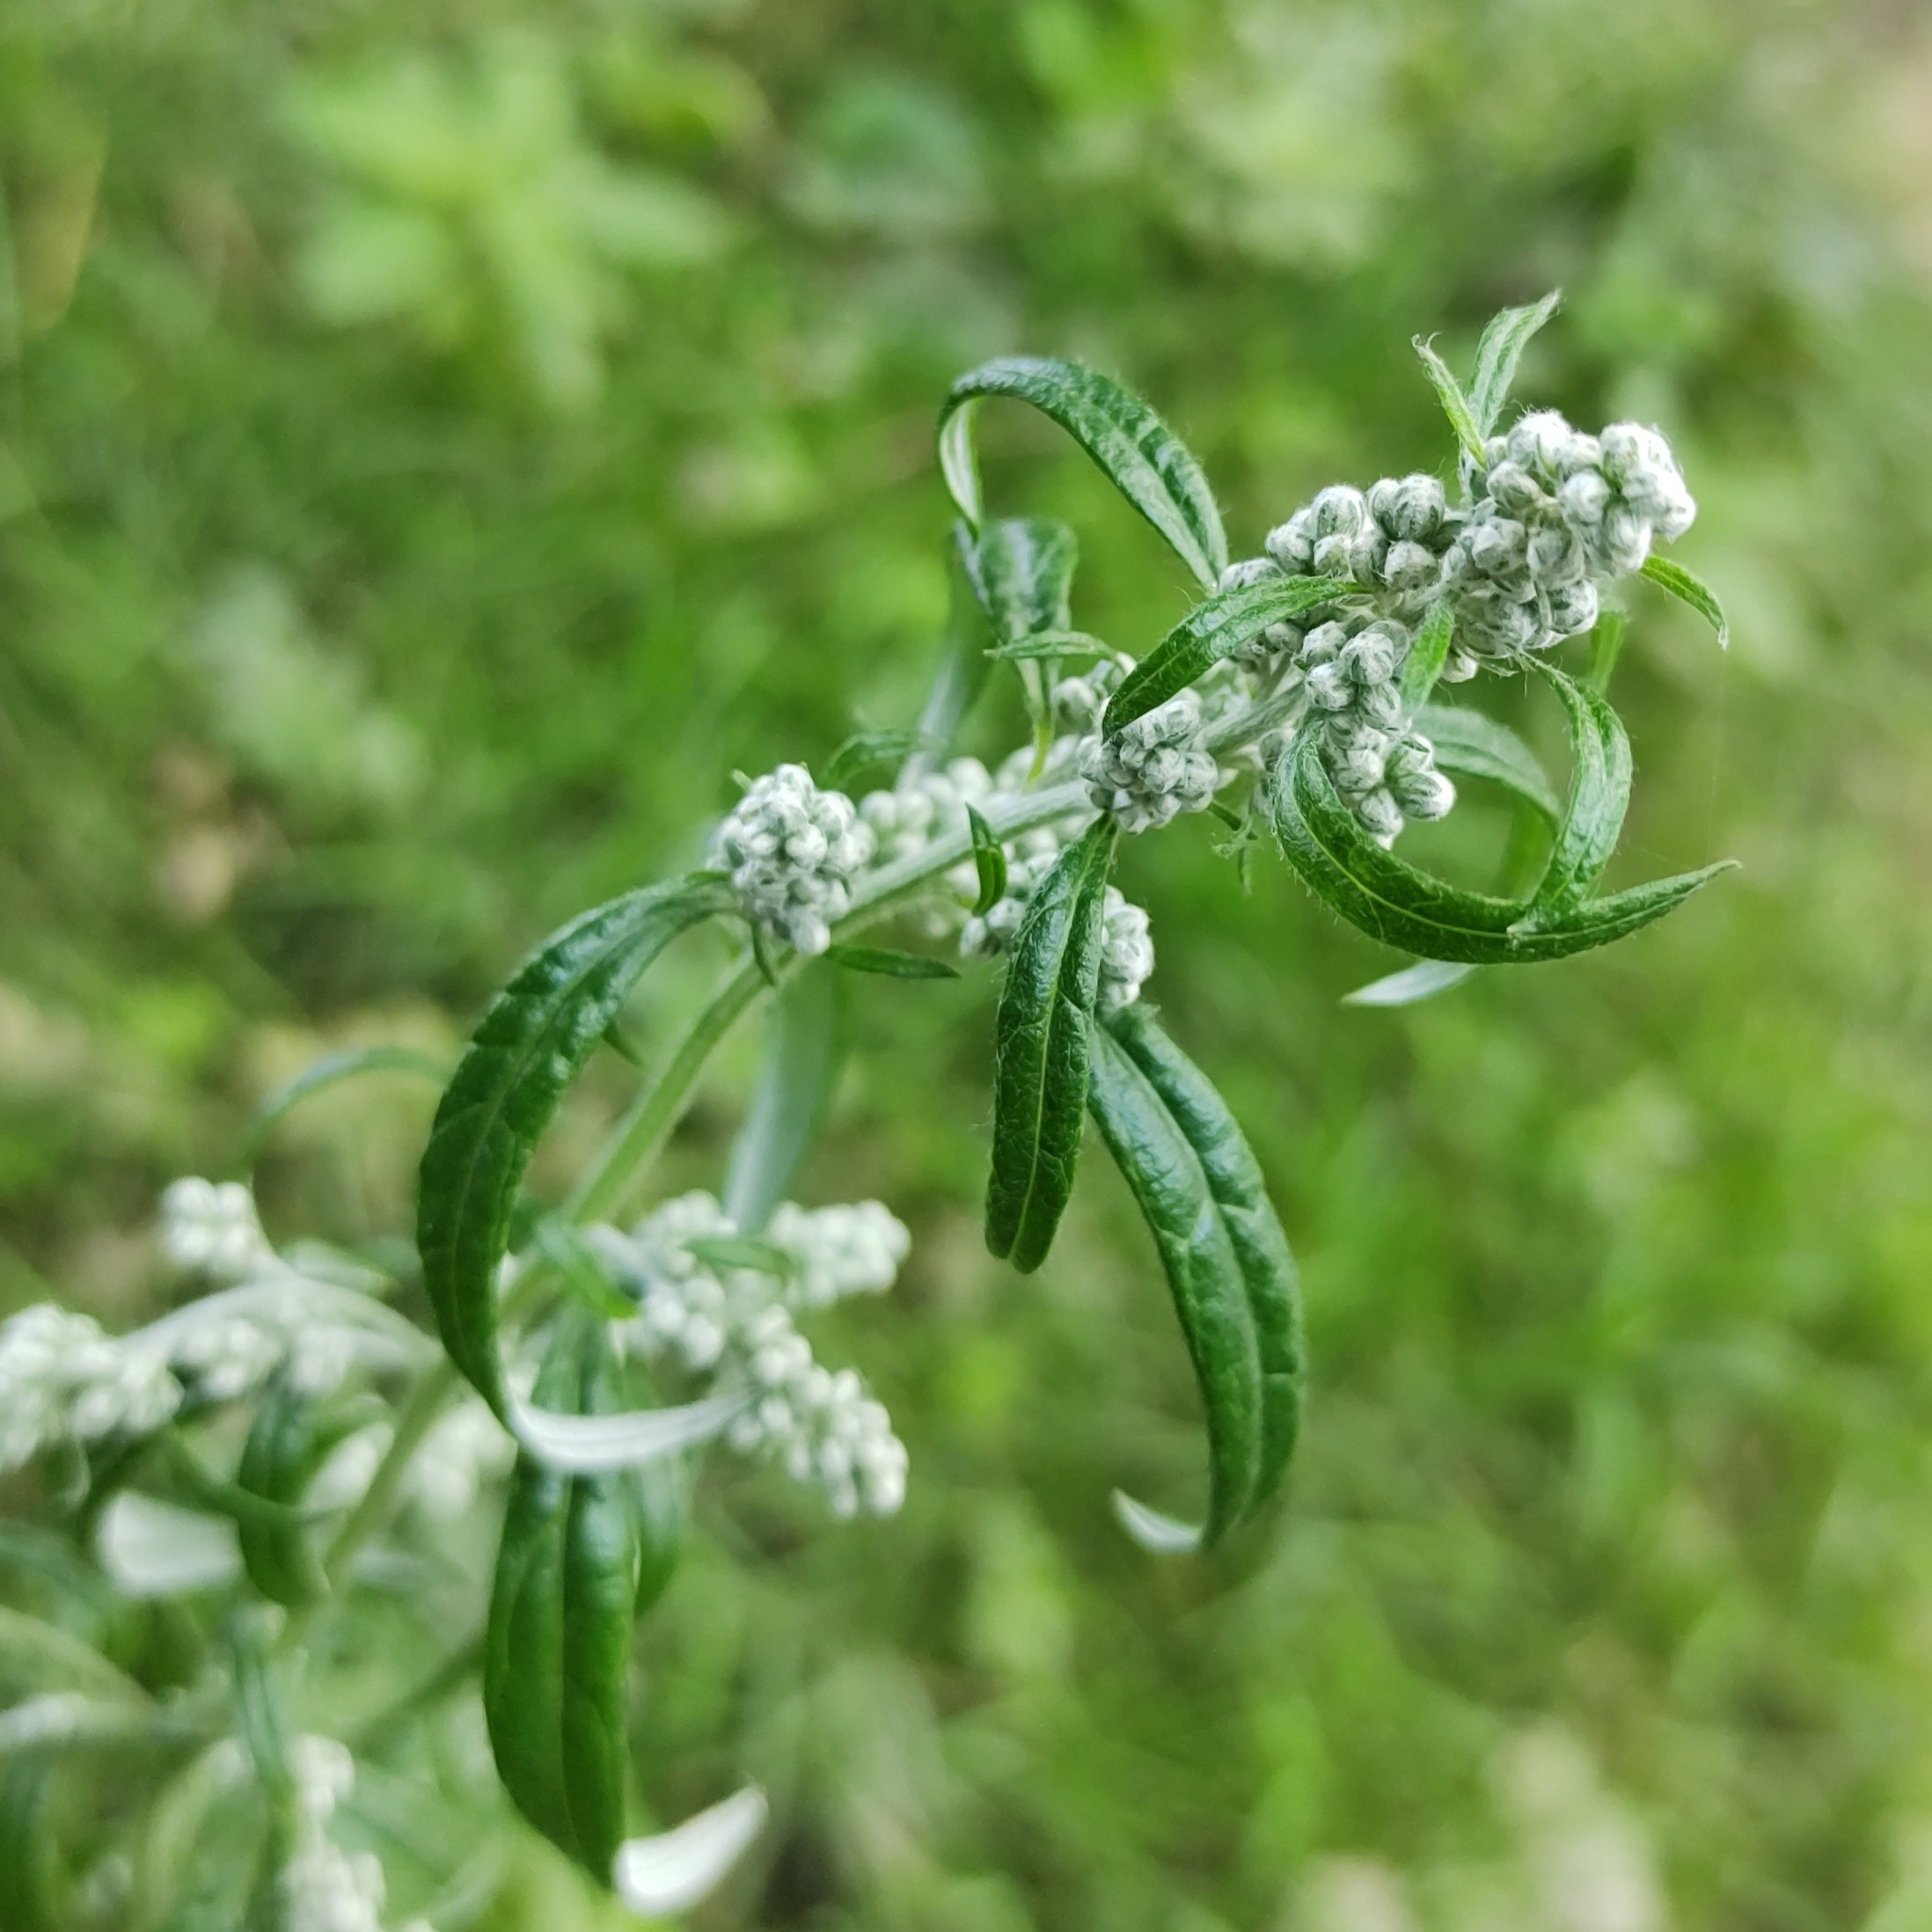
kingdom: Plantae
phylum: Tracheophyta
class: Magnoliopsida
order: Asterales
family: Asteraceae
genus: Artemisia
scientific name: Artemisia vulgaris
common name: Mugwort
